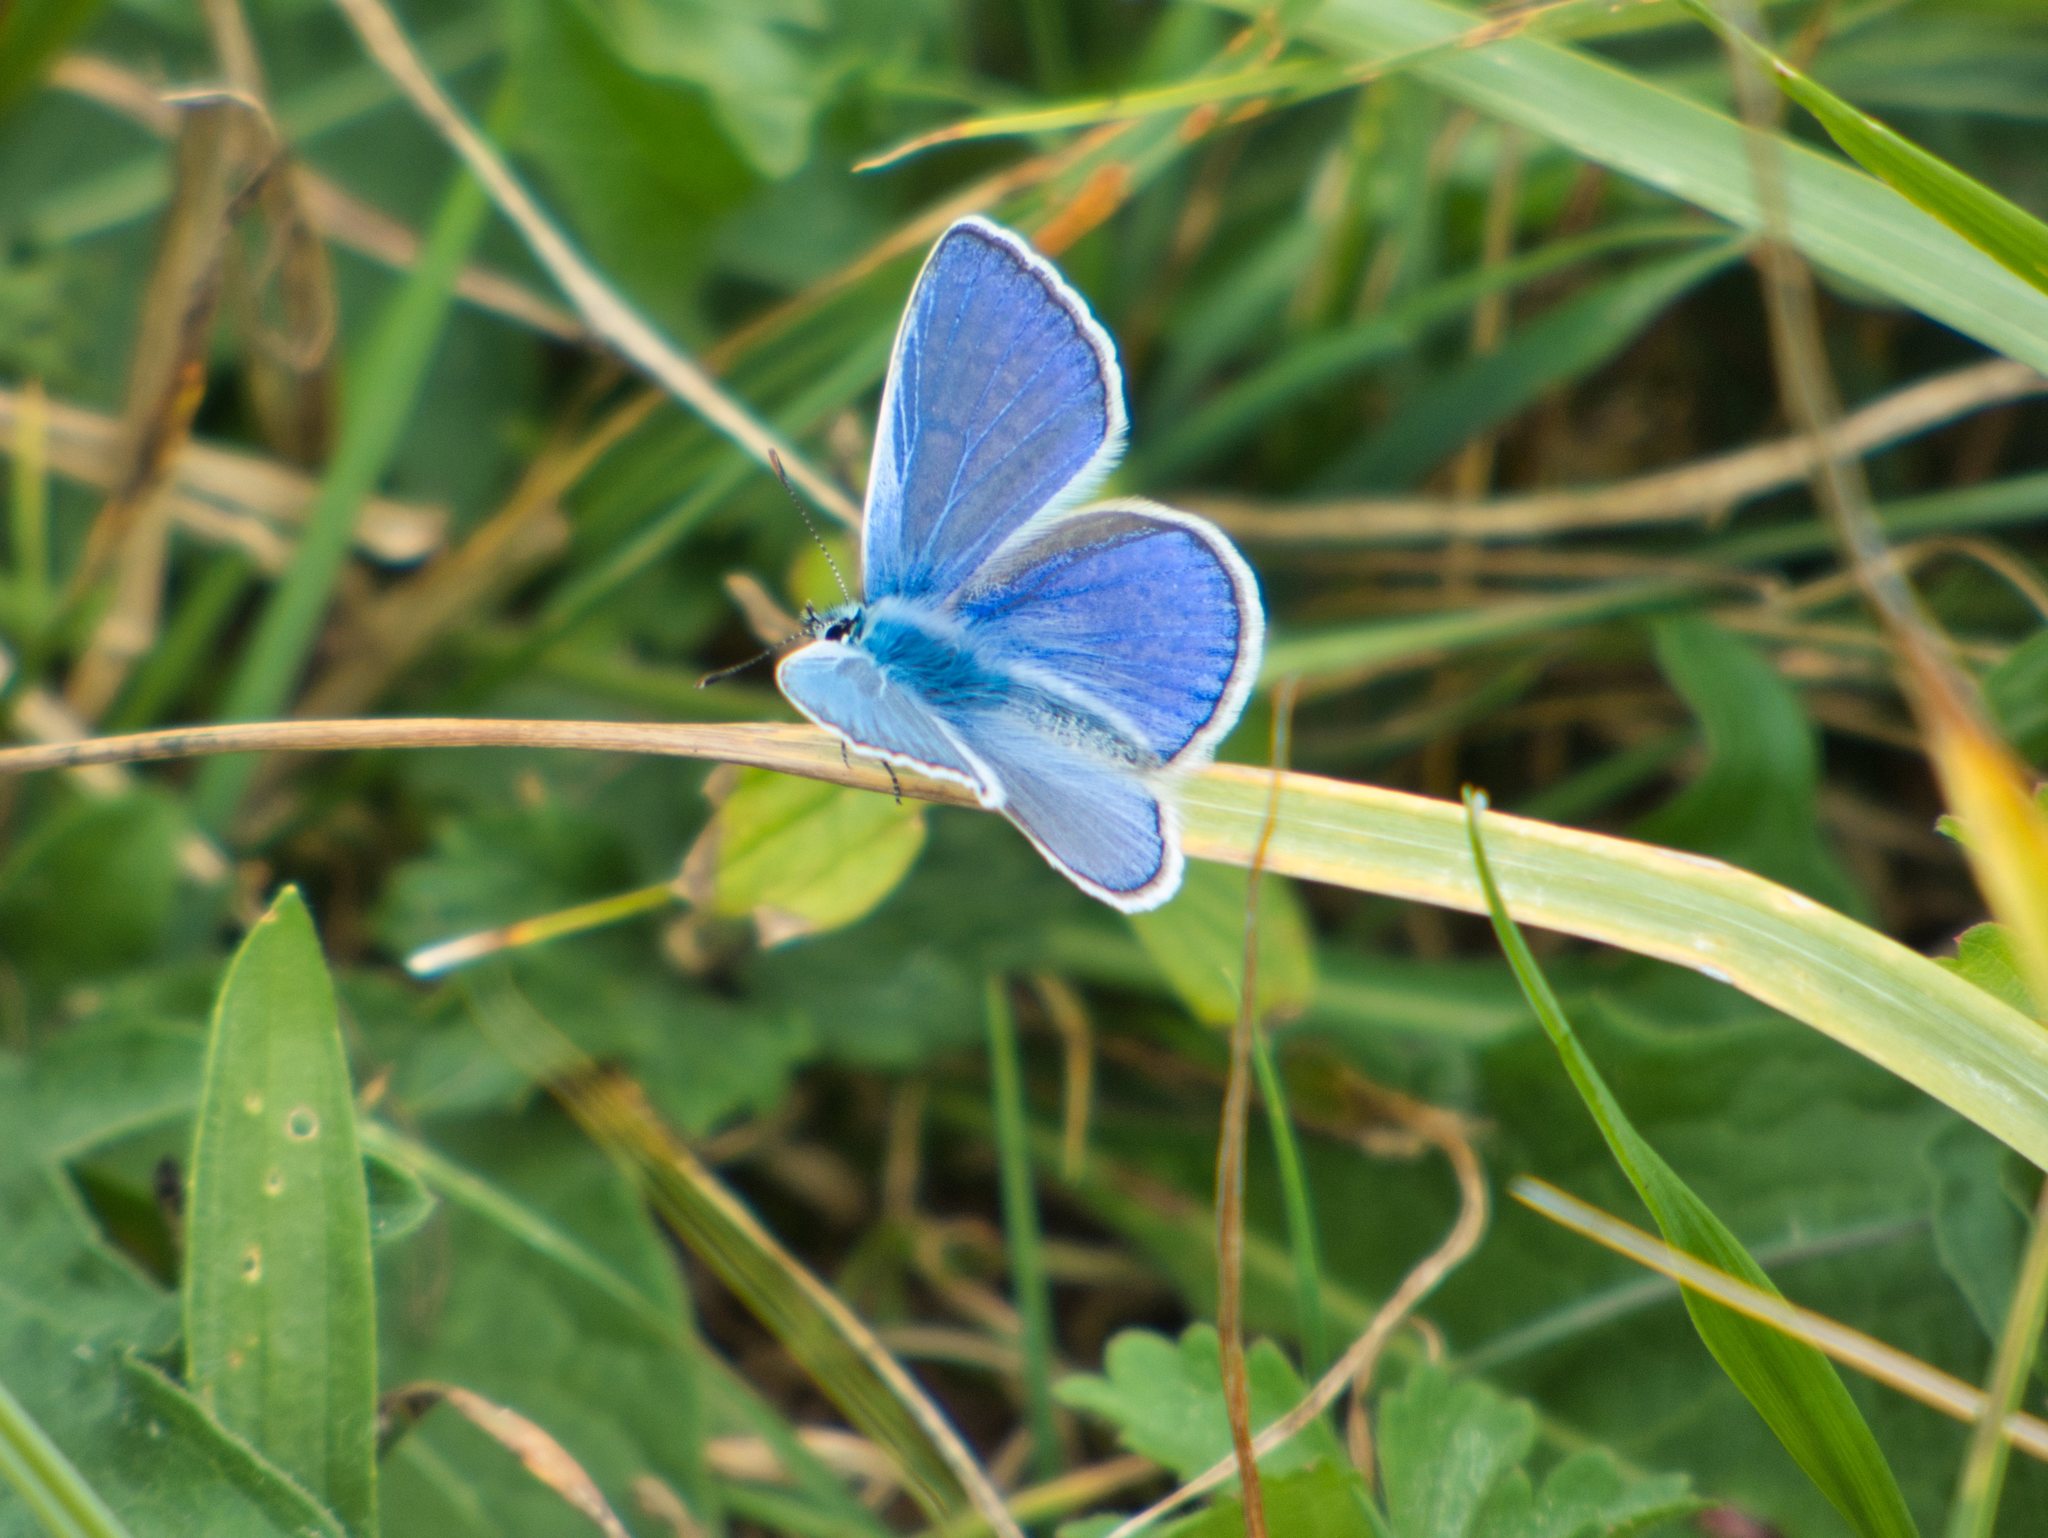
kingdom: Animalia
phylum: Arthropoda
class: Insecta
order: Lepidoptera
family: Lycaenidae
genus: Polyommatus
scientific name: Polyommatus icarus
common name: Common blue
